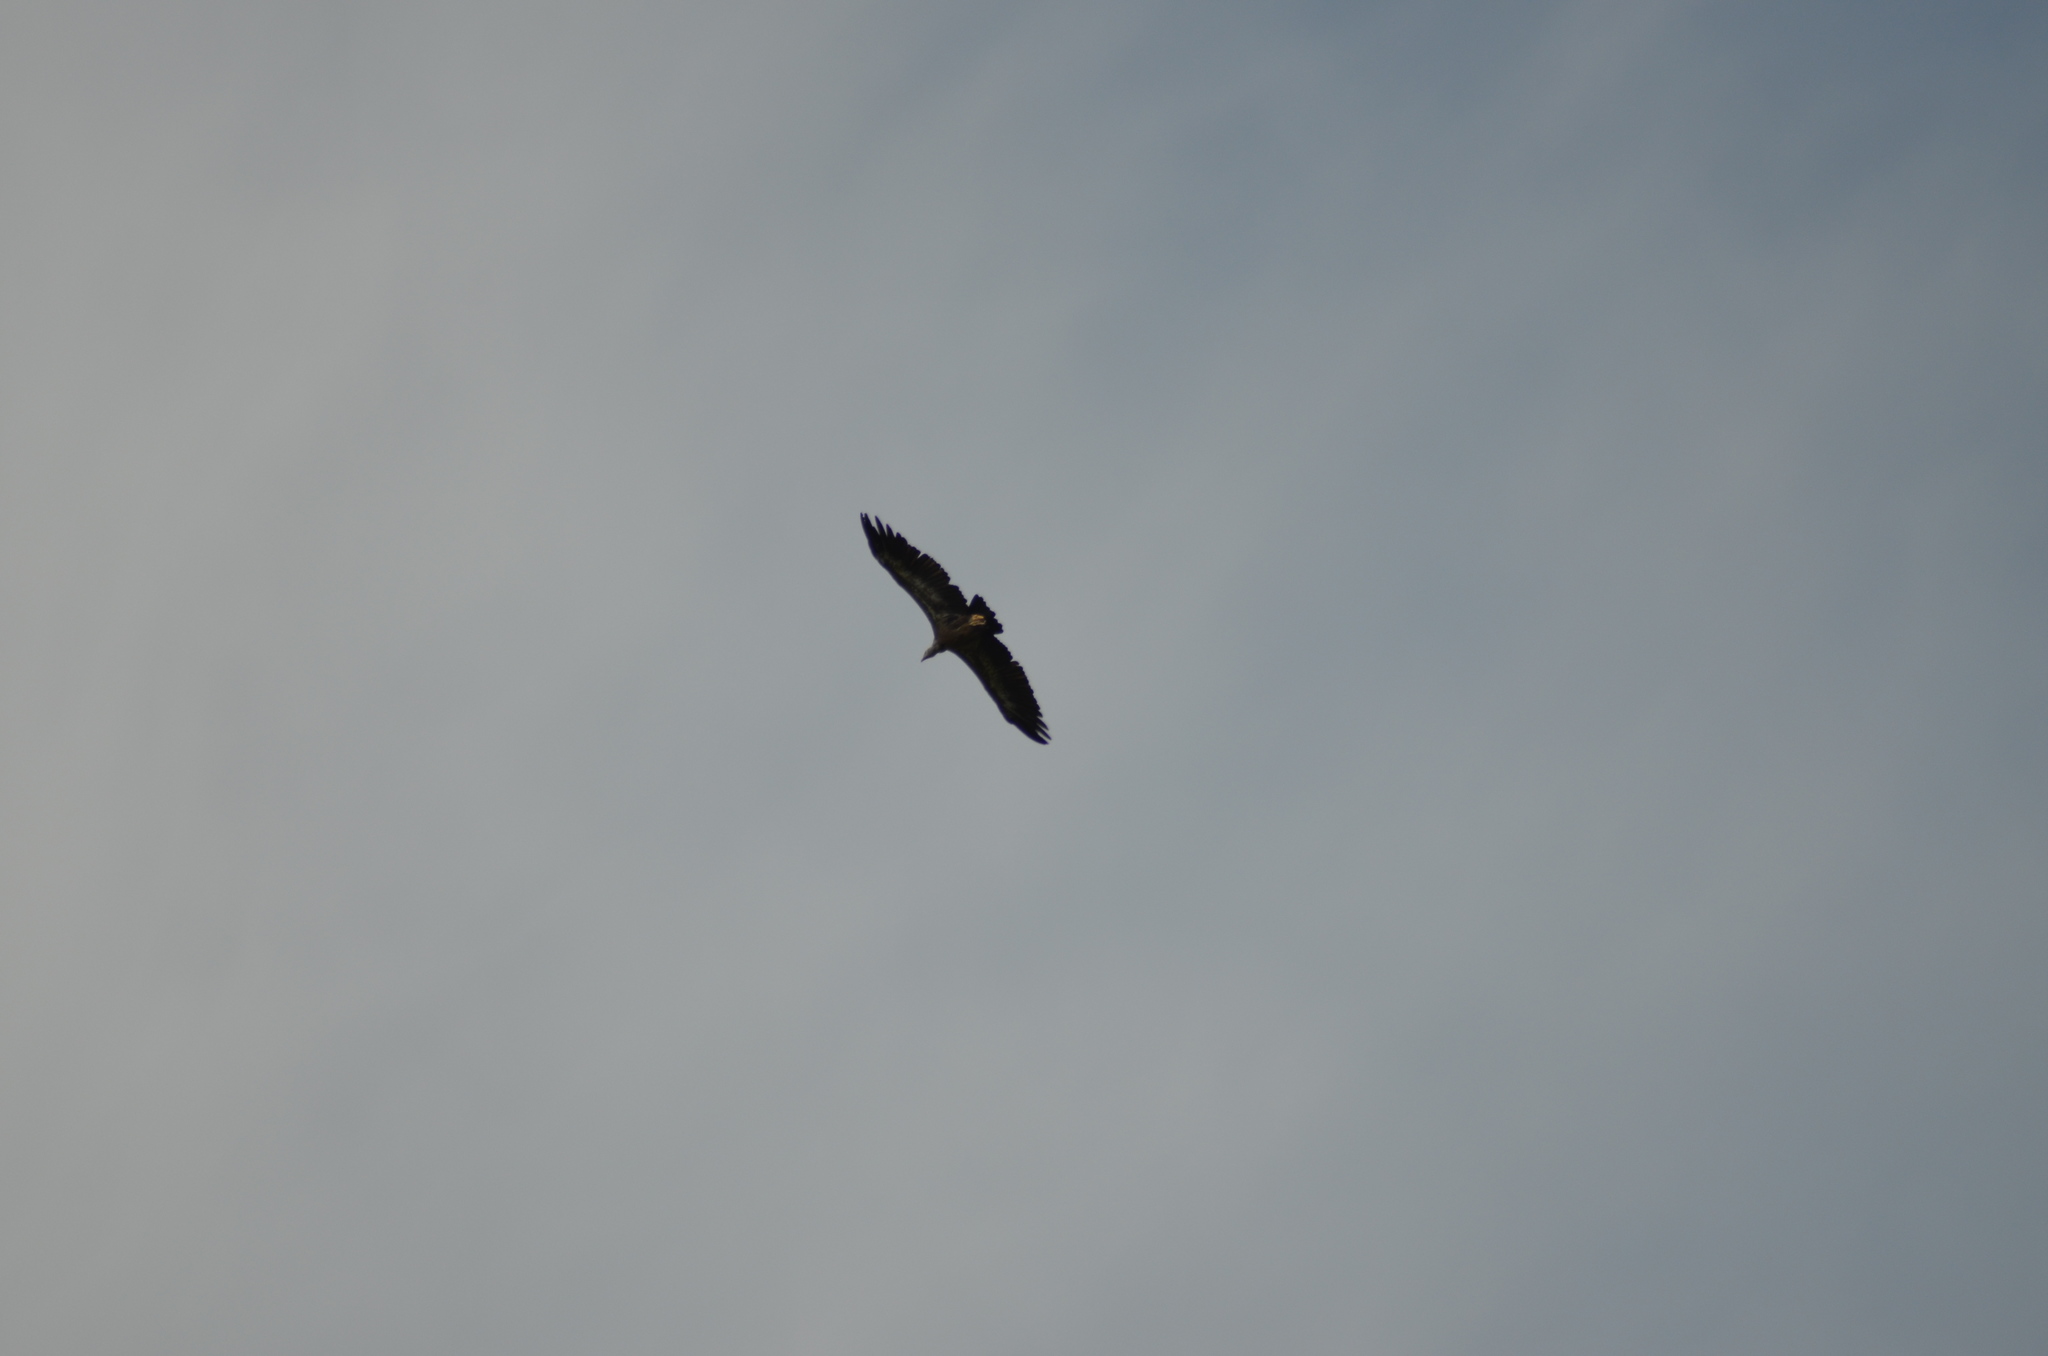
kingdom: Animalia
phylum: Chordata
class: Aves
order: Accipitriformes
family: Accipitridae
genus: Gyps
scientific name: Gyps fulvus
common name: Griffon vulture
